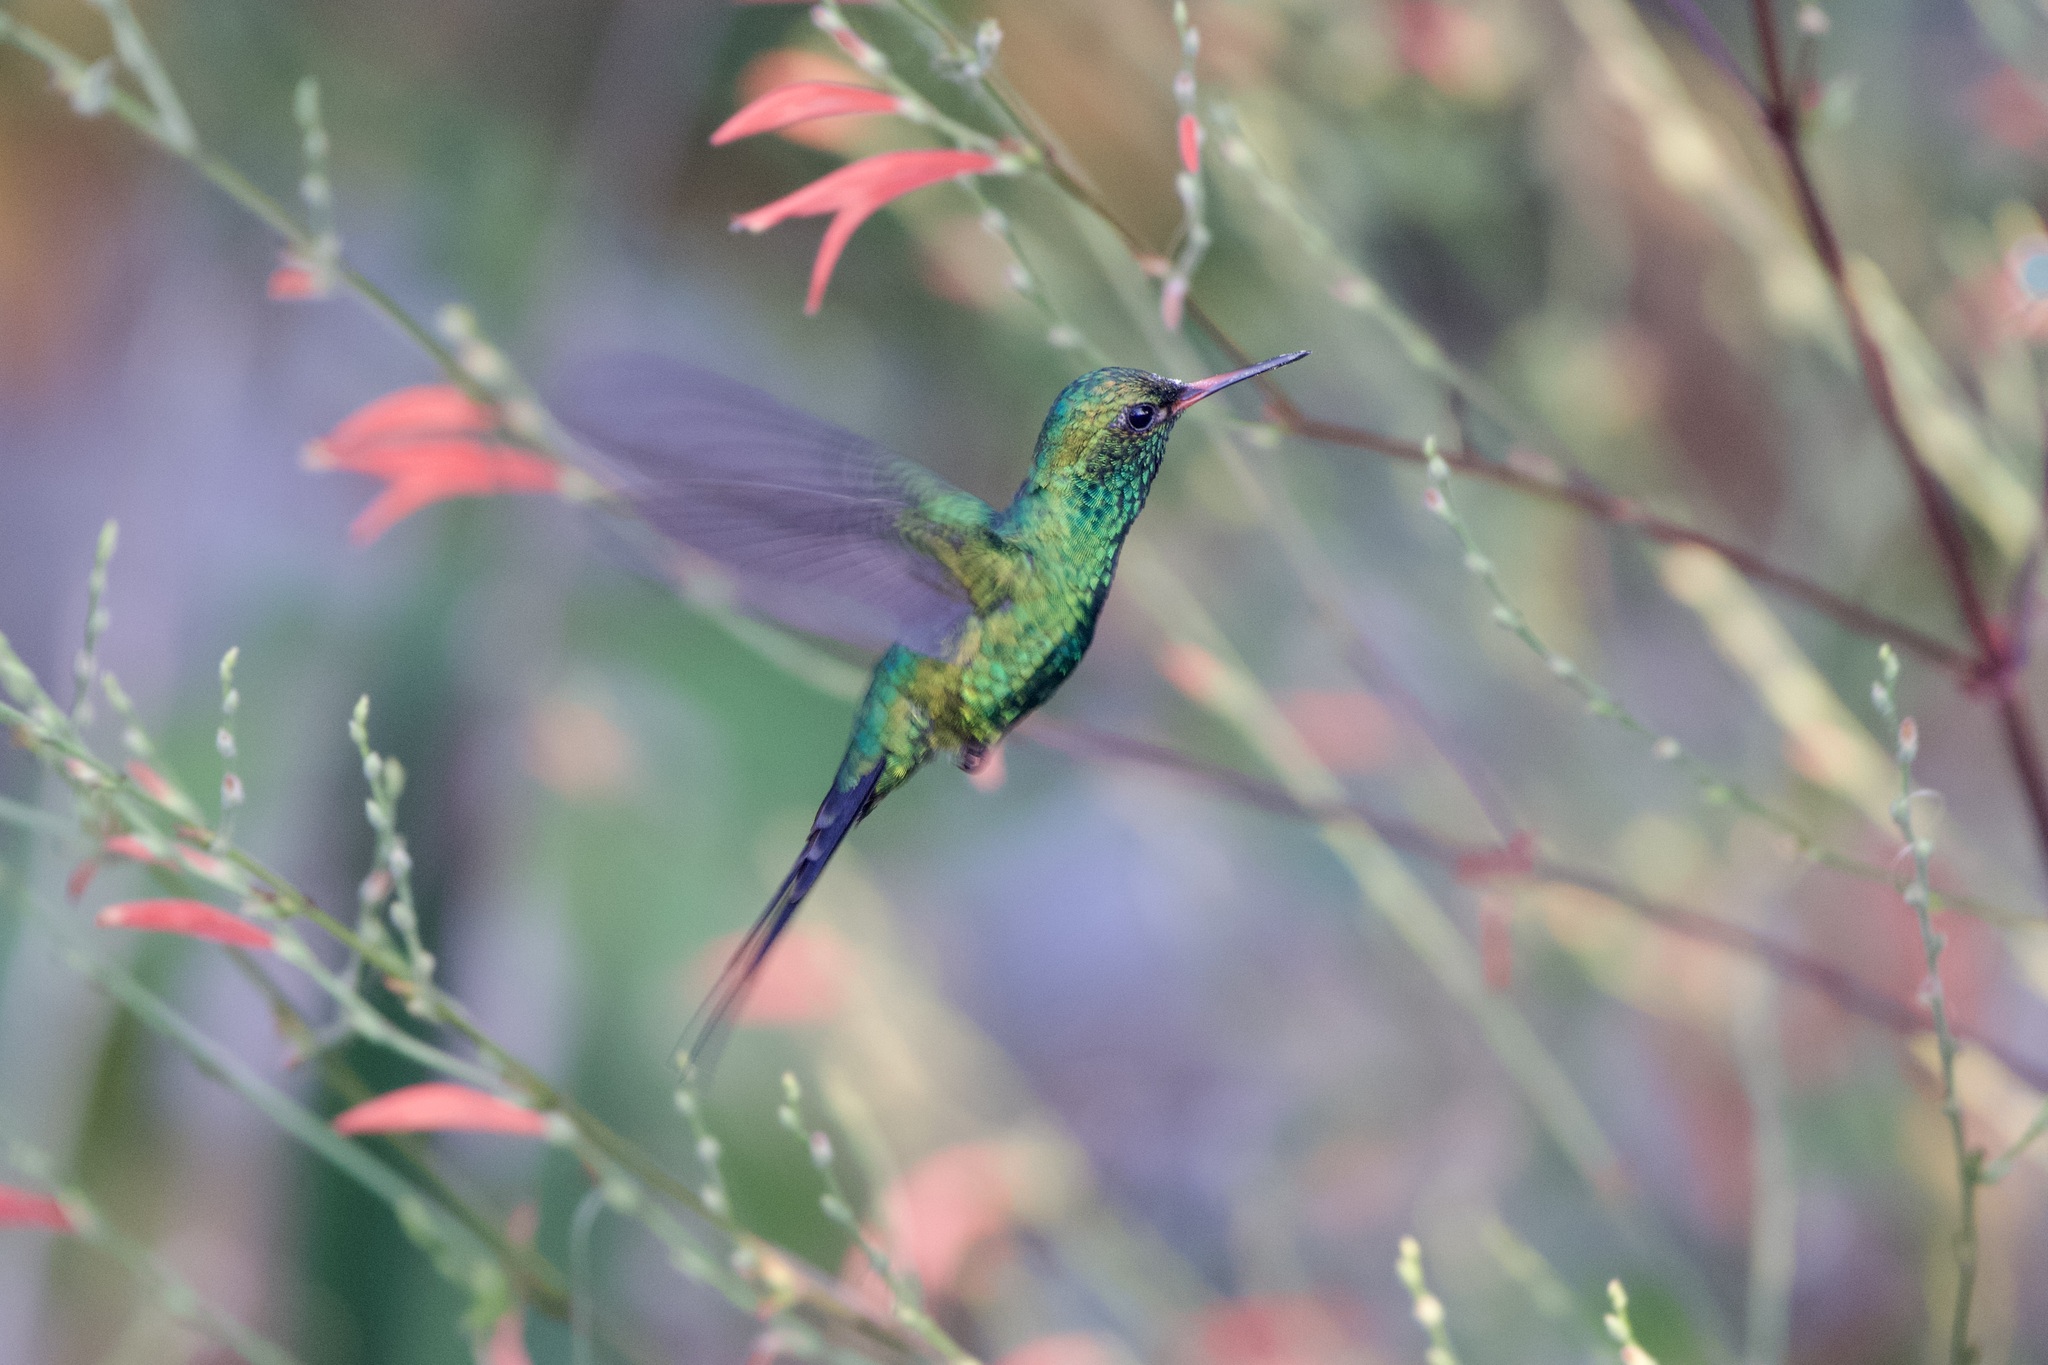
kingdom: Animalia
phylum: Chordata
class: Aves
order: Apodiformes
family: Trochilidae
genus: Cynanthus
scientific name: Cynanthus forficatus
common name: Cozumel emerald
